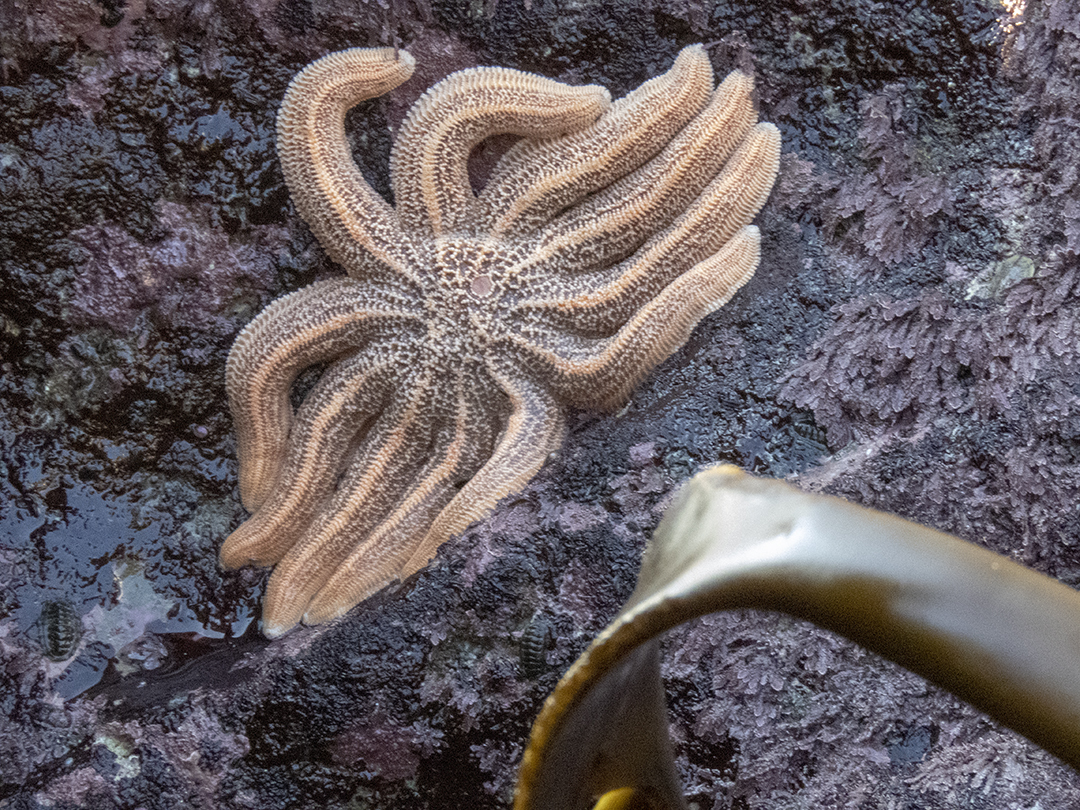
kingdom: Animalia
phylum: Echinodermata
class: Asteroidea
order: Forcipulatida
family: Stichasteridae
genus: Stichaster
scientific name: Stichaster australis
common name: Reef starfish
